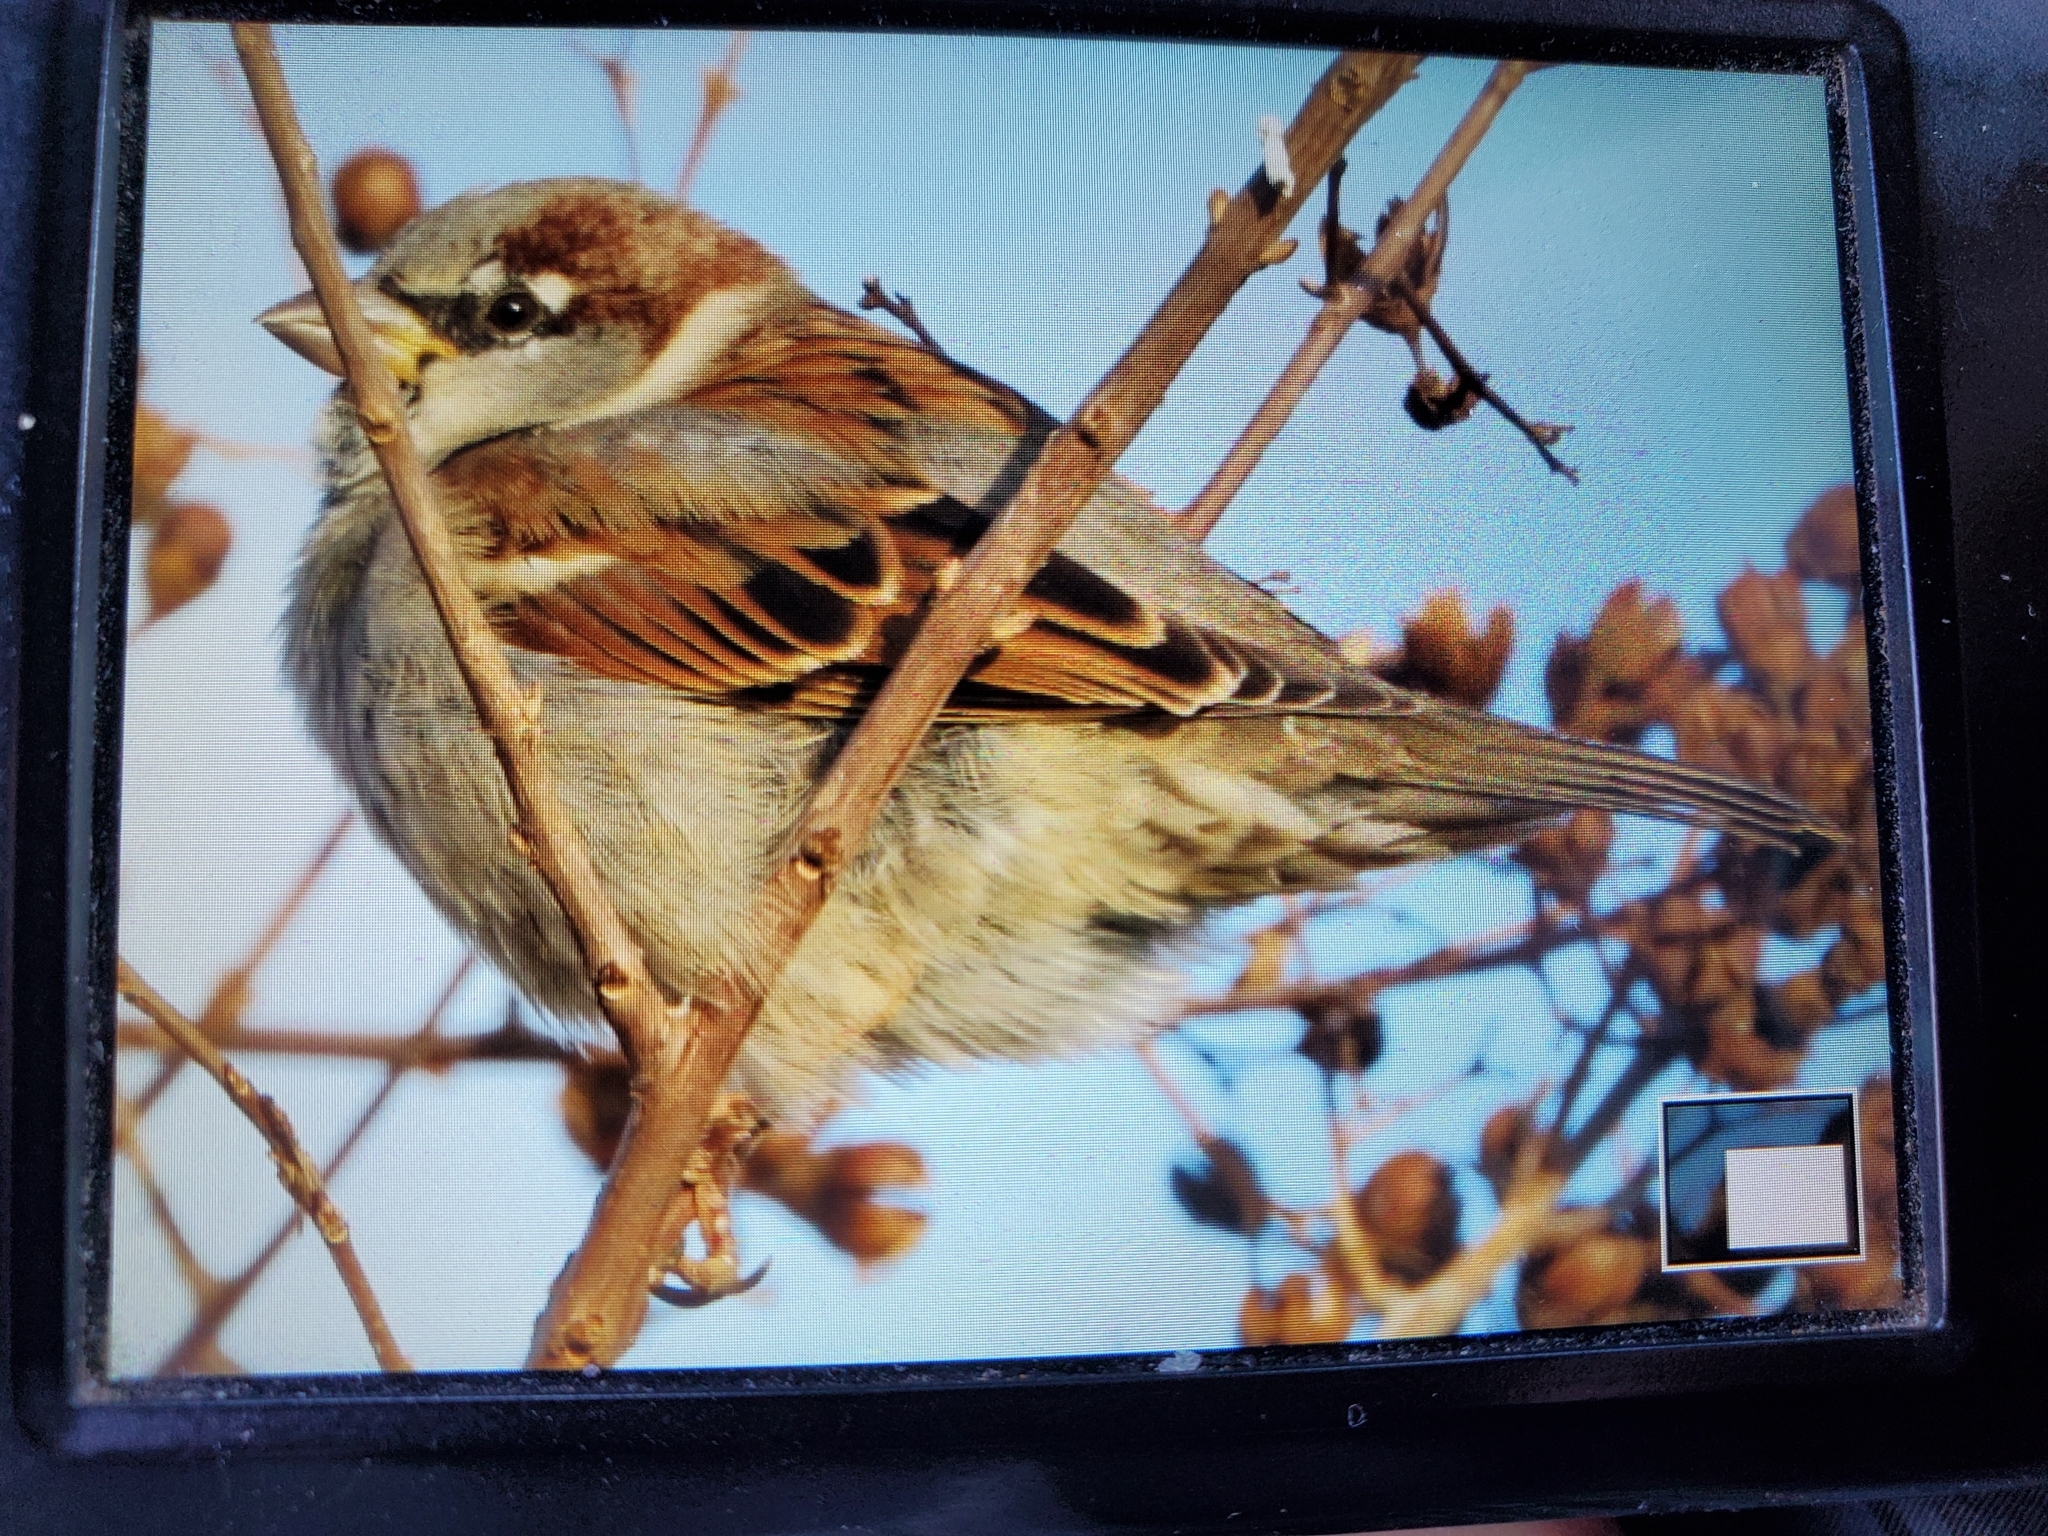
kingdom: Animalia
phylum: Chordata
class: Aves
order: Passeriformes
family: Passeridae
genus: Passer
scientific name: Passer domesticus
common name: House sparrow
